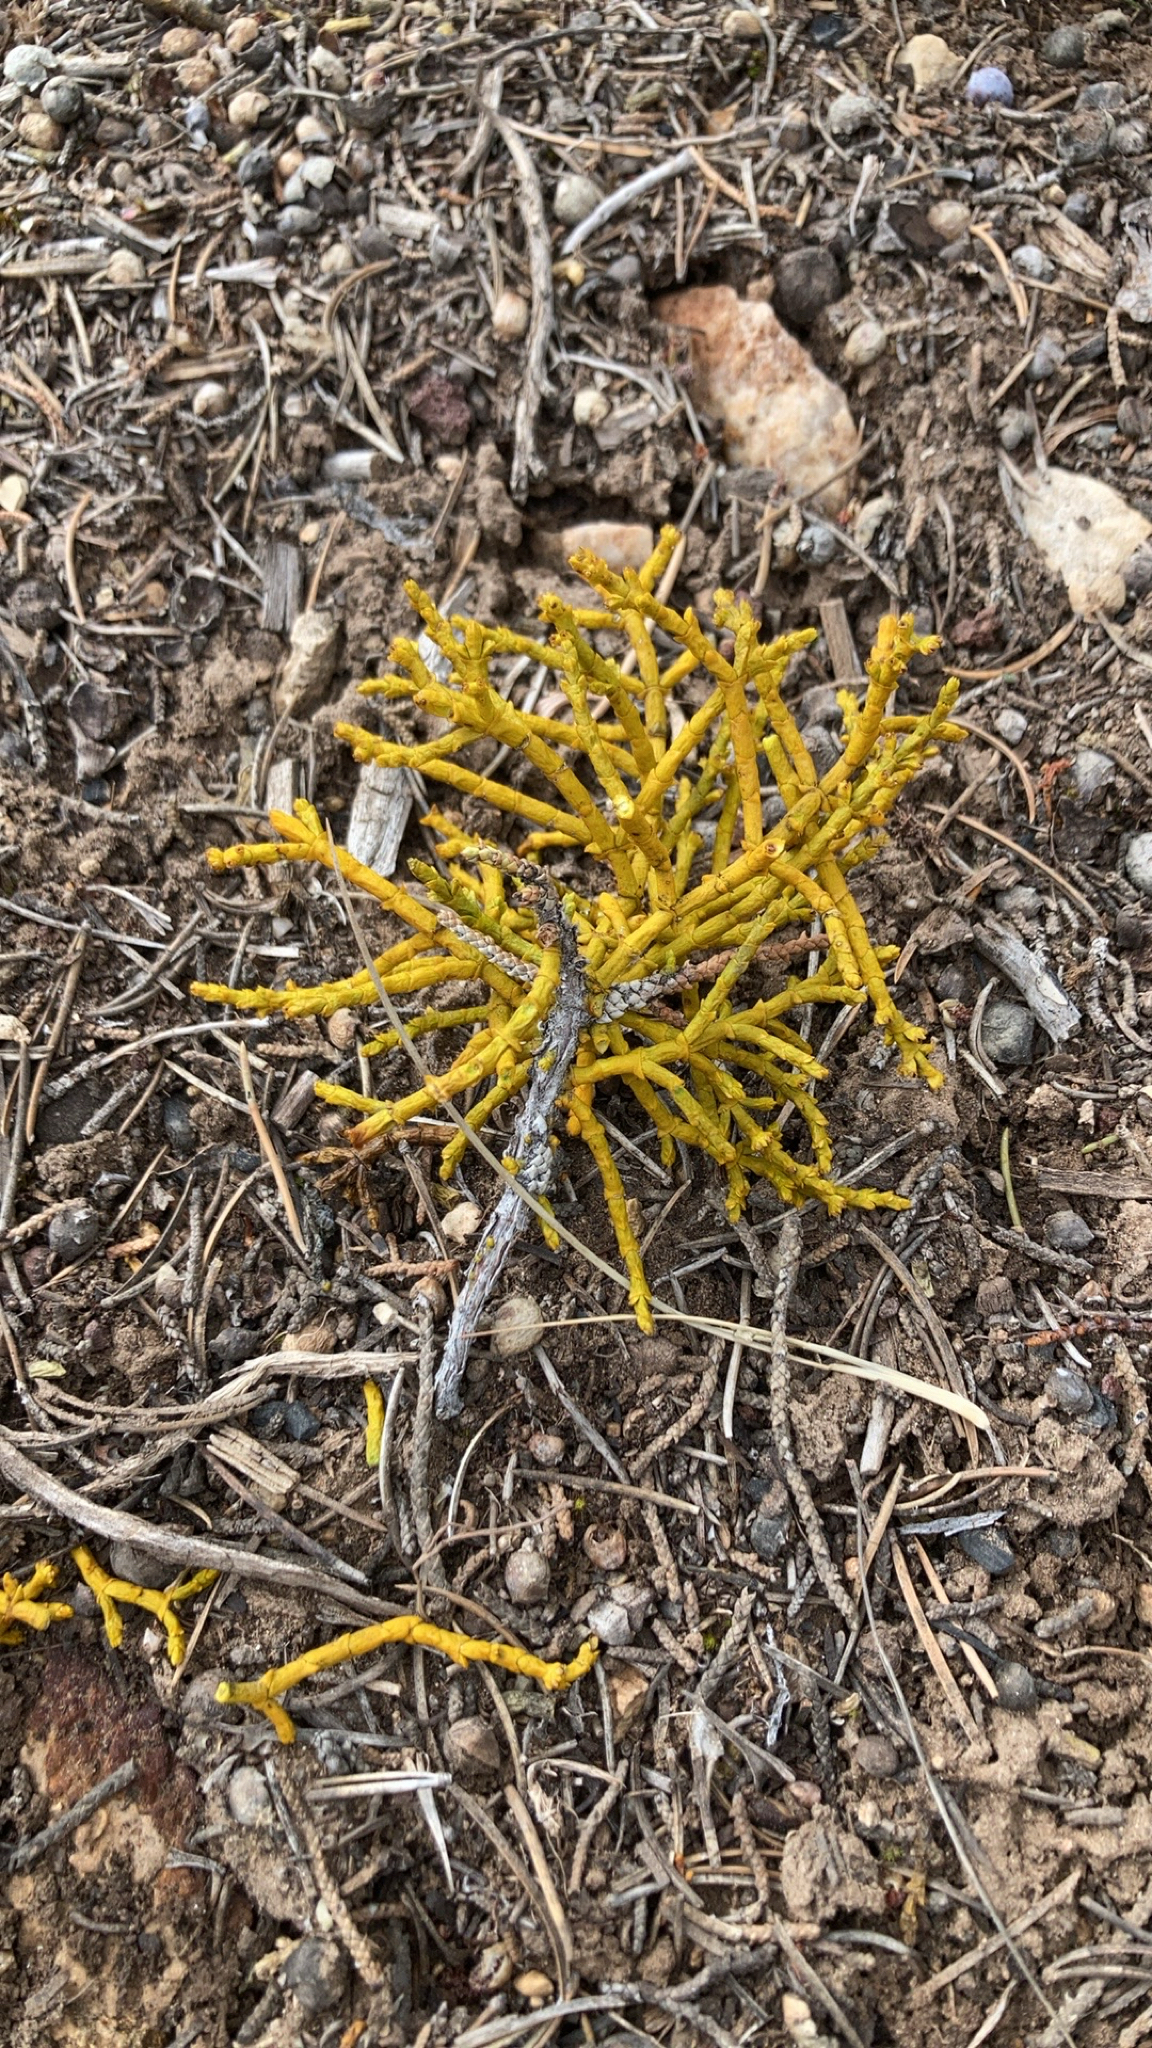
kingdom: Plantae
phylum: Tracheophyta
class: Magnoliopsida
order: Santalales
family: Viscaceae
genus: Phoradendron
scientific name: Phoradendron juniperinum
